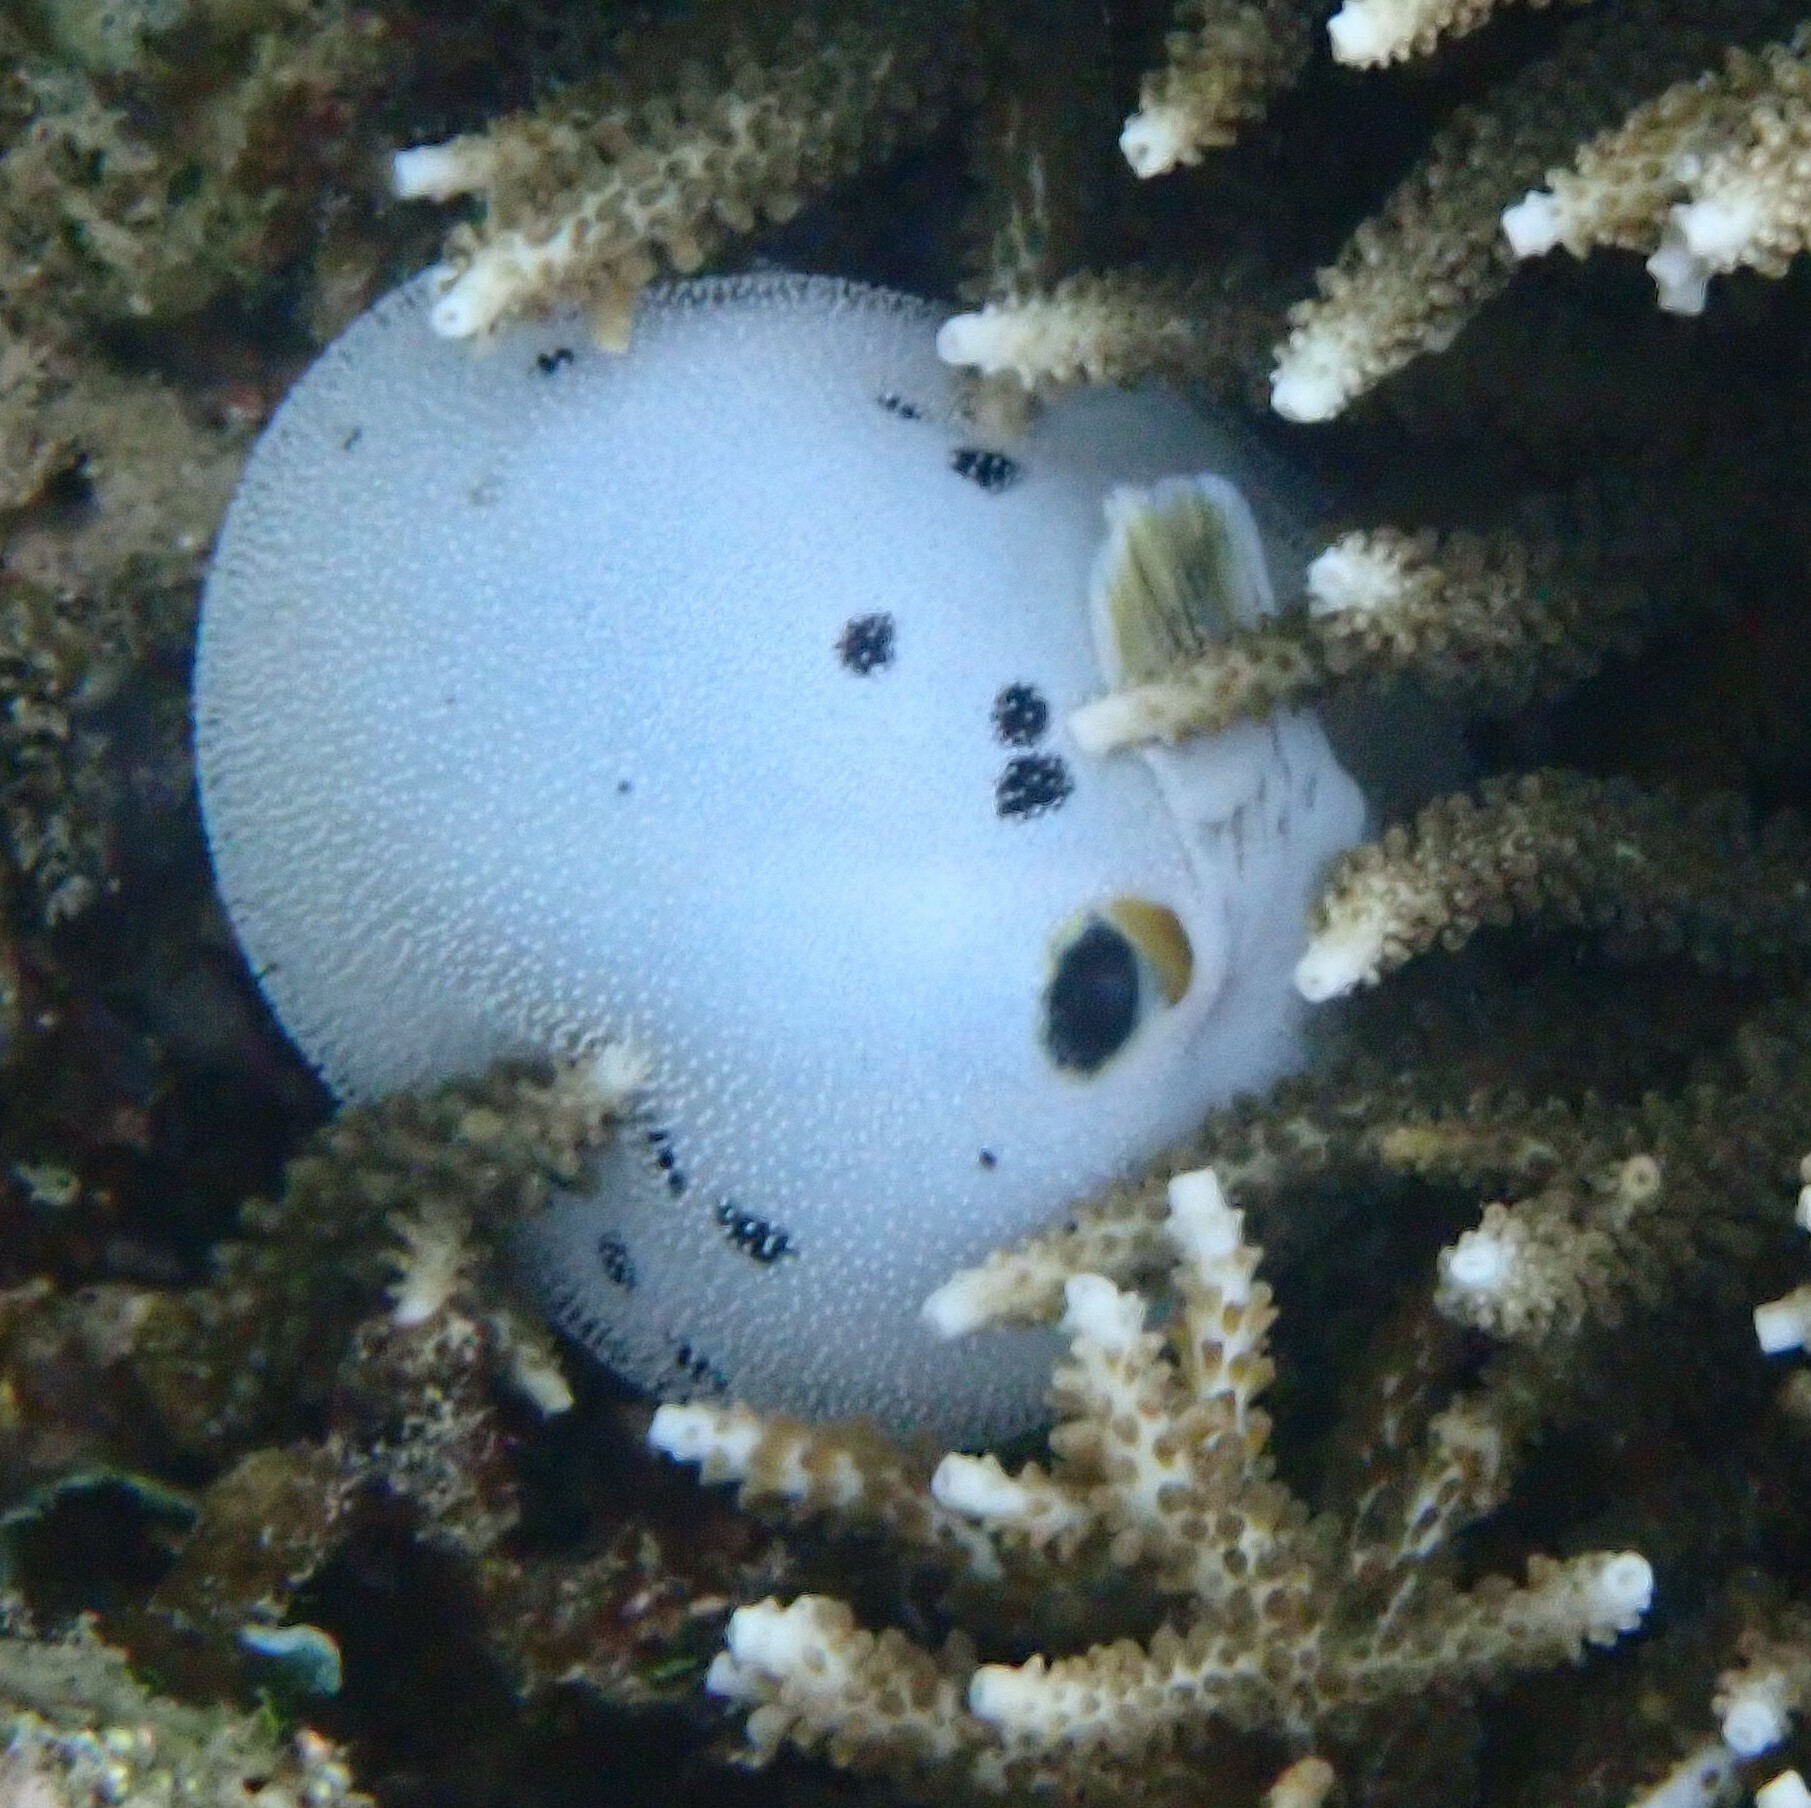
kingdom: Animalia
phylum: Chordata
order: Tetraodontiformes
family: Tetraodontidae
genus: Arothron
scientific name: Arothron nigropunctatus
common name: Black spotted blow fish
